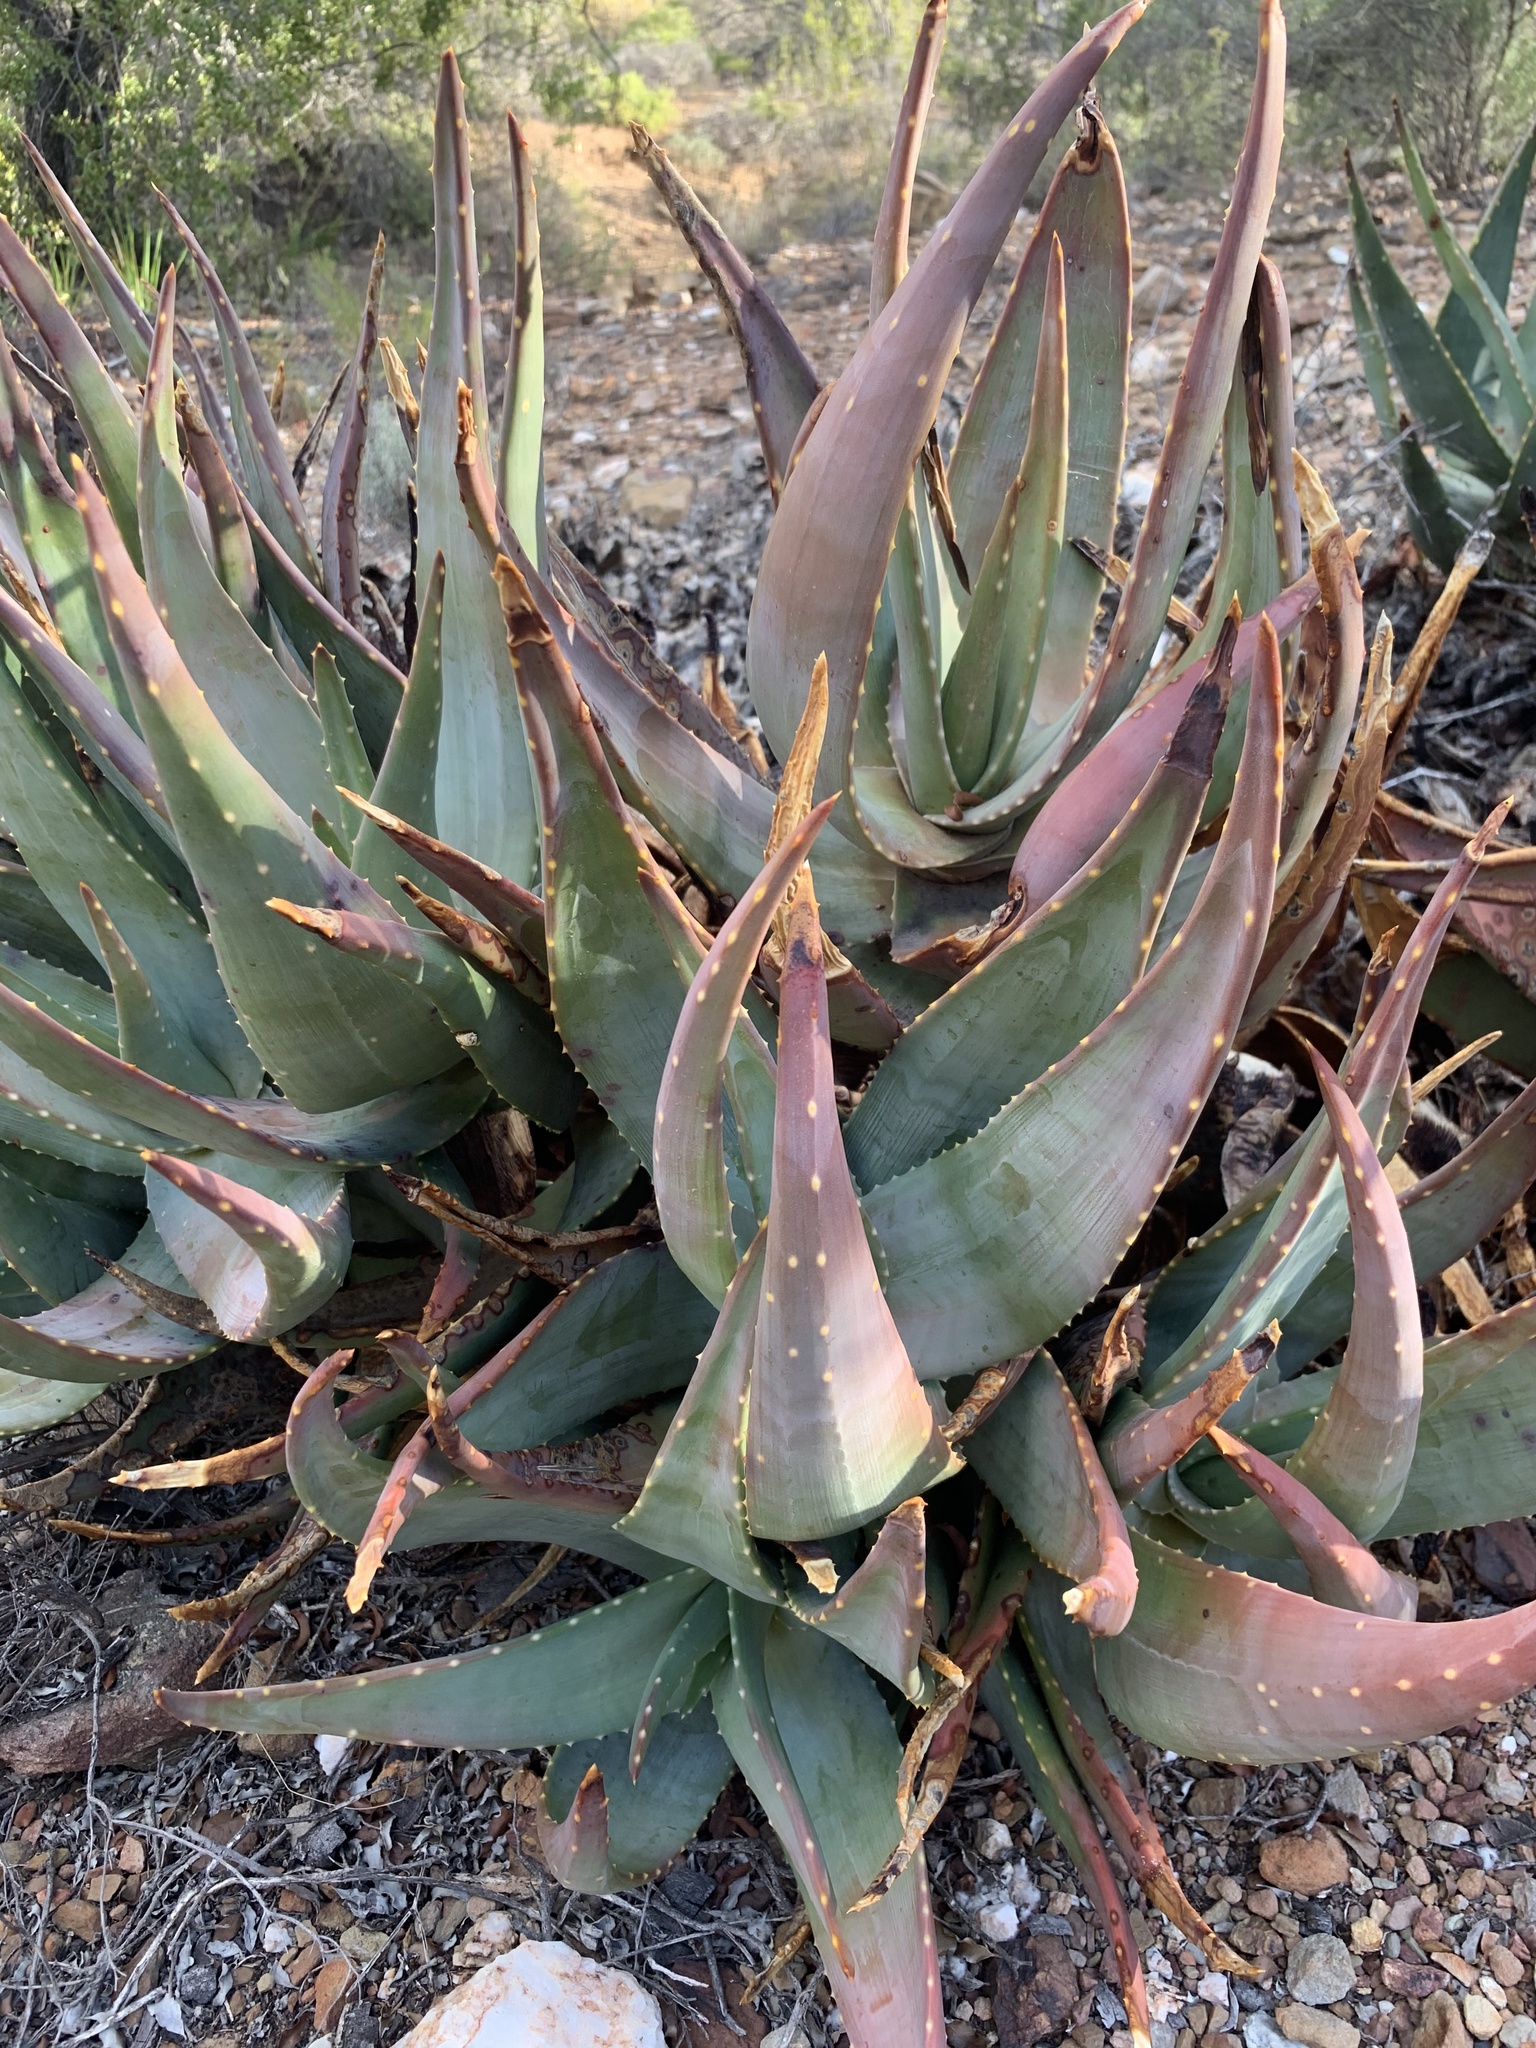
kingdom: Plantae
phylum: Tracheophyta
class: Liliopsida
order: Asparagales
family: Asphodelaceae
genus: Aloe
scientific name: Aloe comptonii
